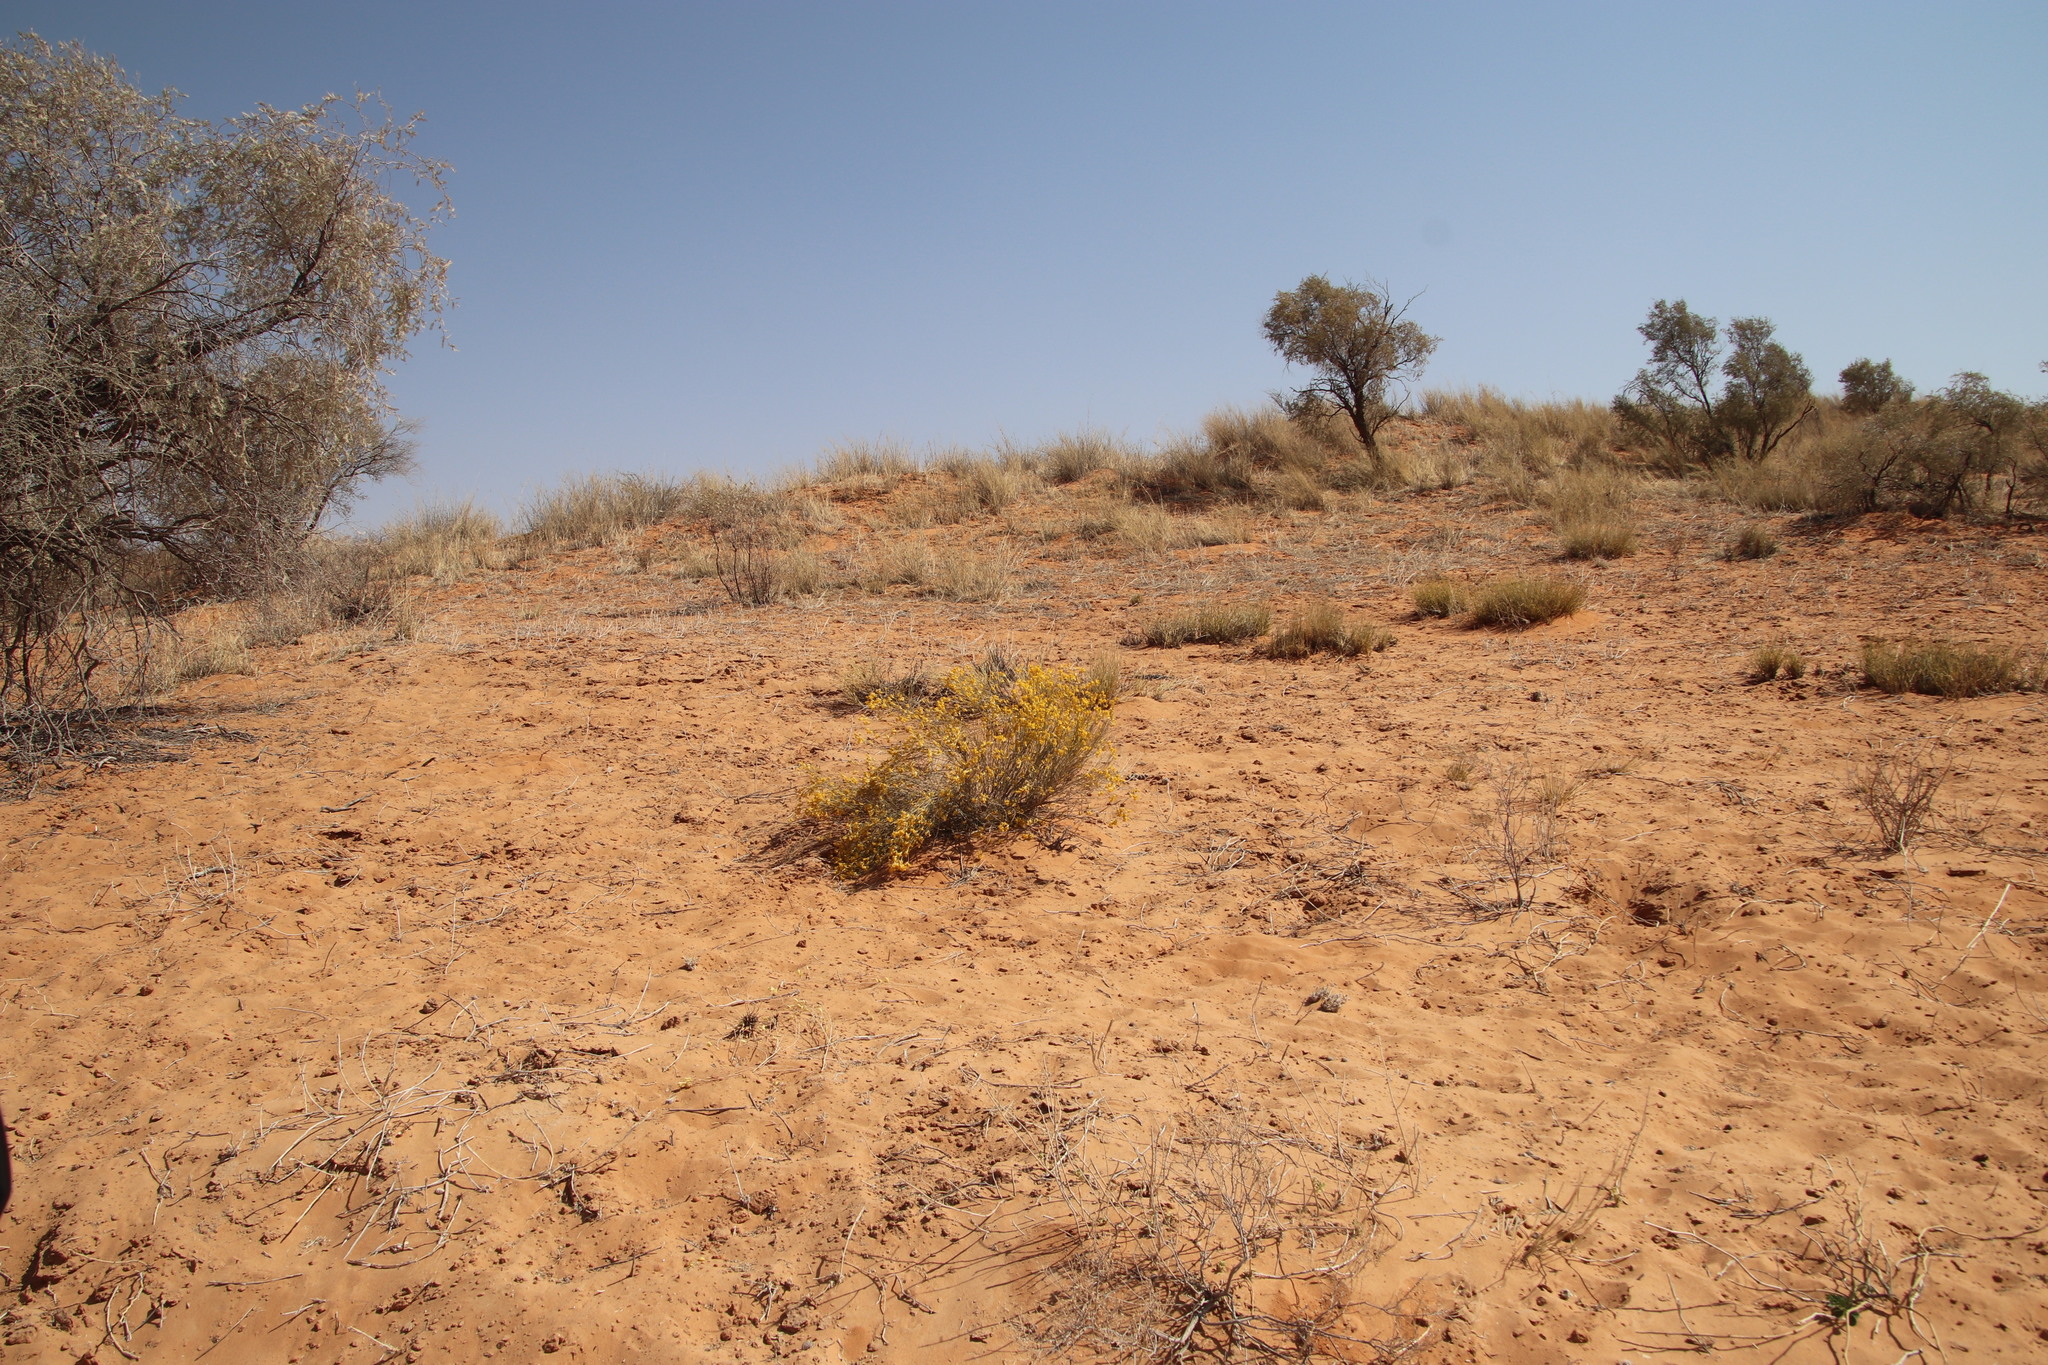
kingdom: Plantae
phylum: Tracheophyta
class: Magnoliopsida
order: Malvales
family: Thymelaeaceae
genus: Gnidia
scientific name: Gnidia polycephala
